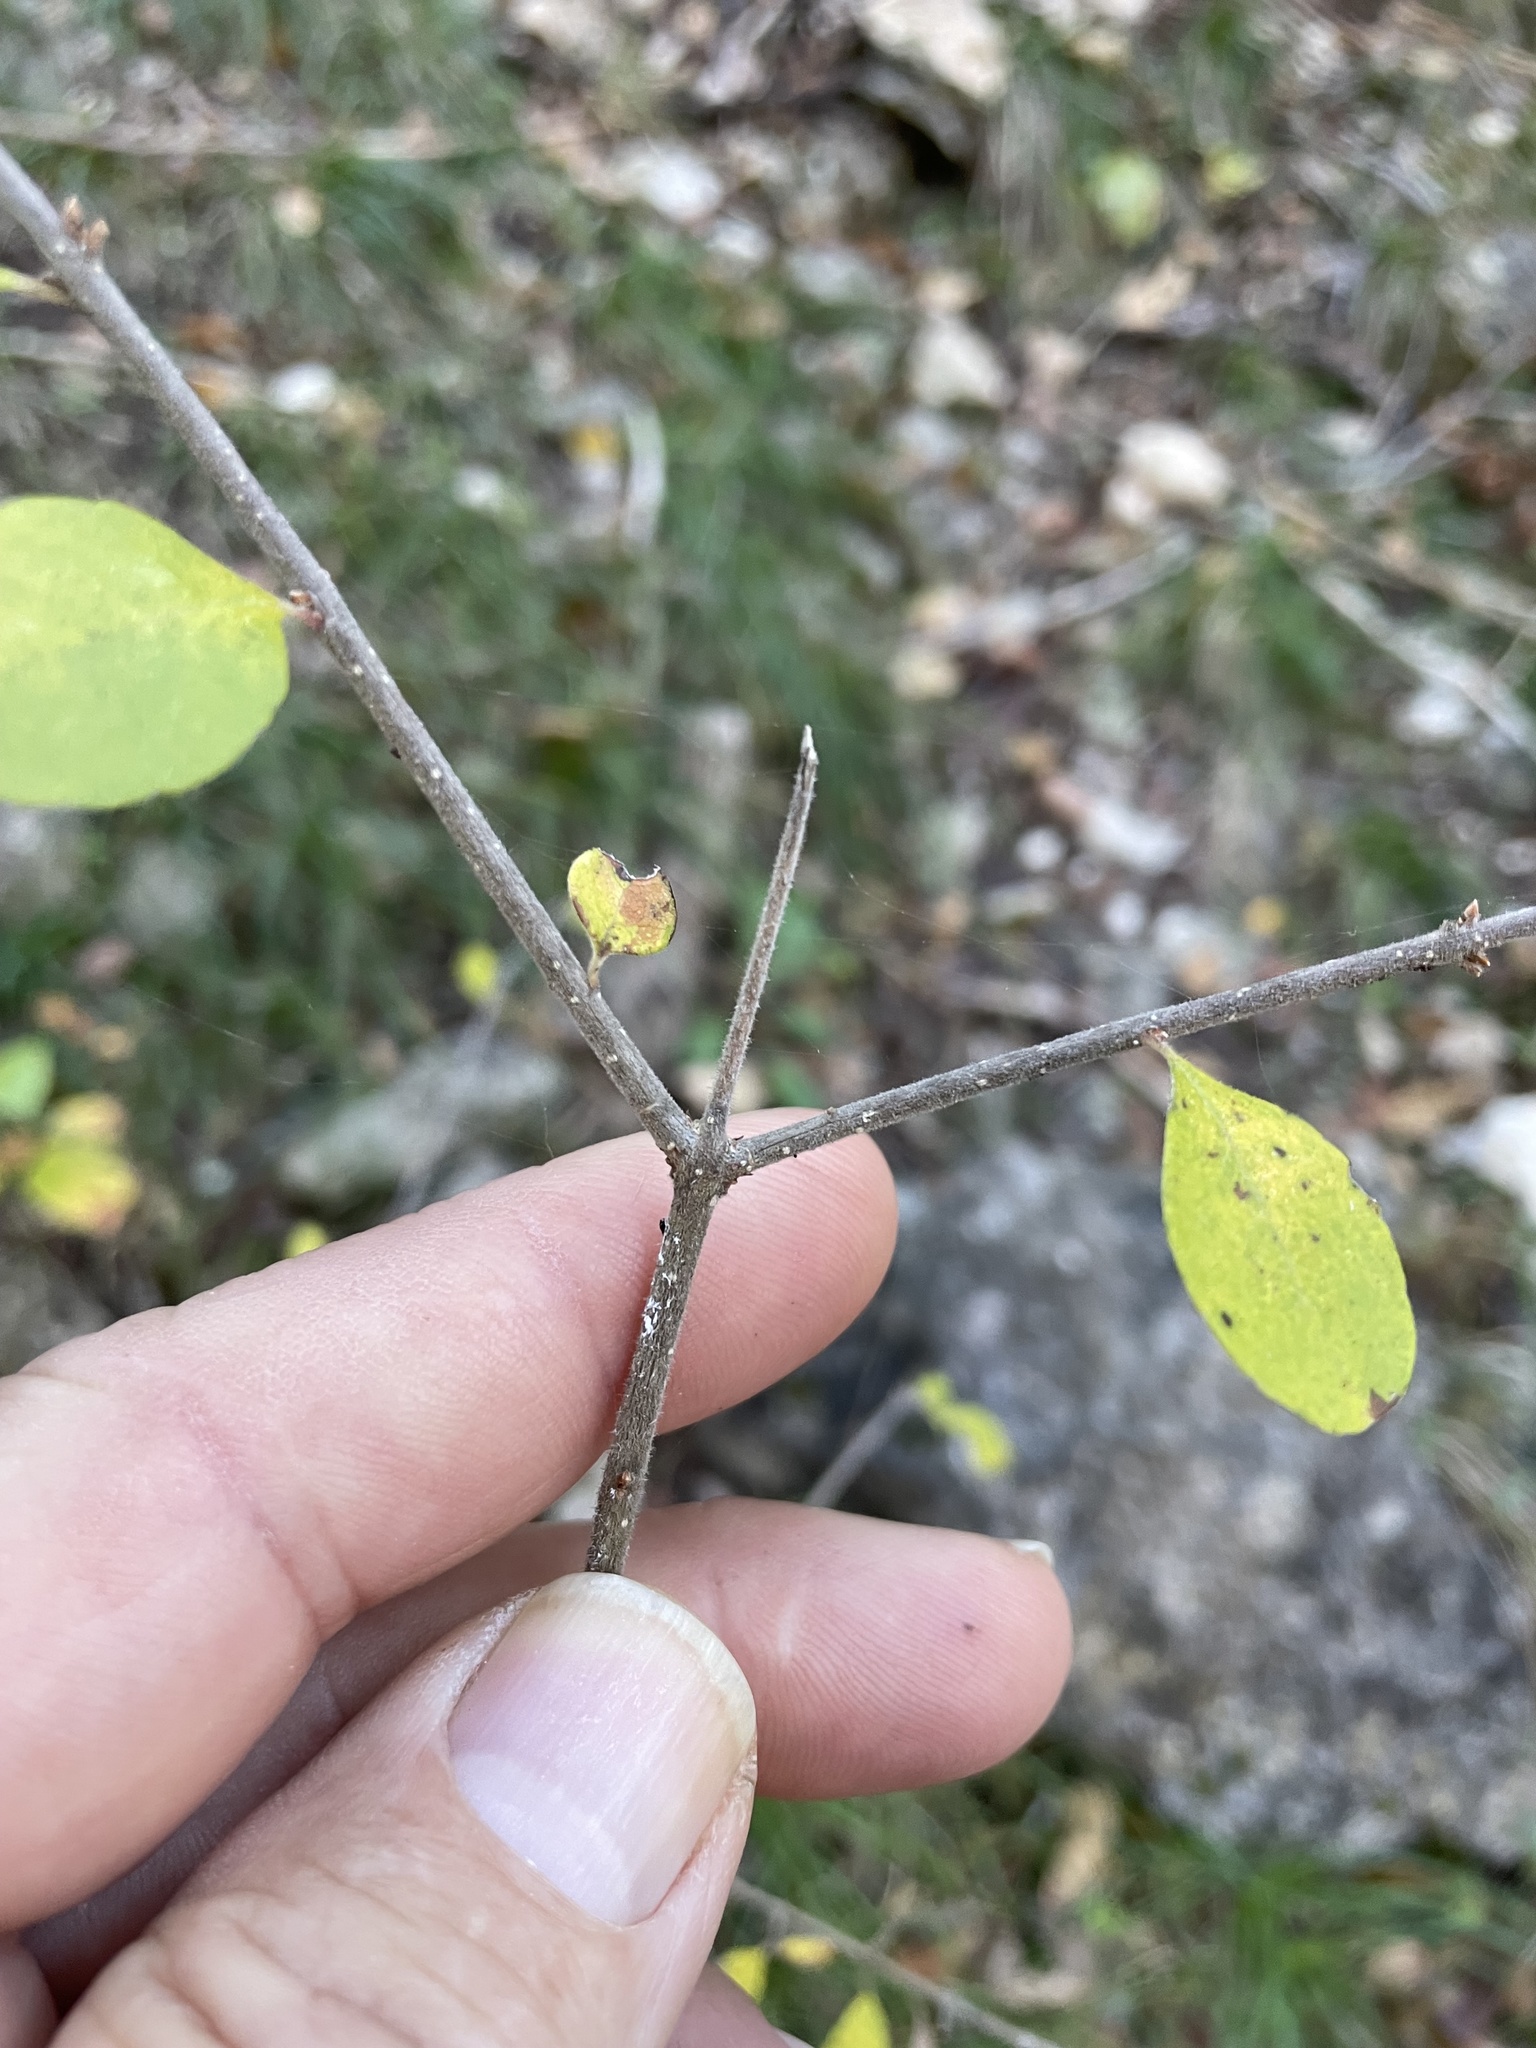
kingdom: Plantae
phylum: Tracheophyta
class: Magnoliopsida
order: Lamiales
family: Oleaceae
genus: Forestiera
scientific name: Forestiera pubescens
